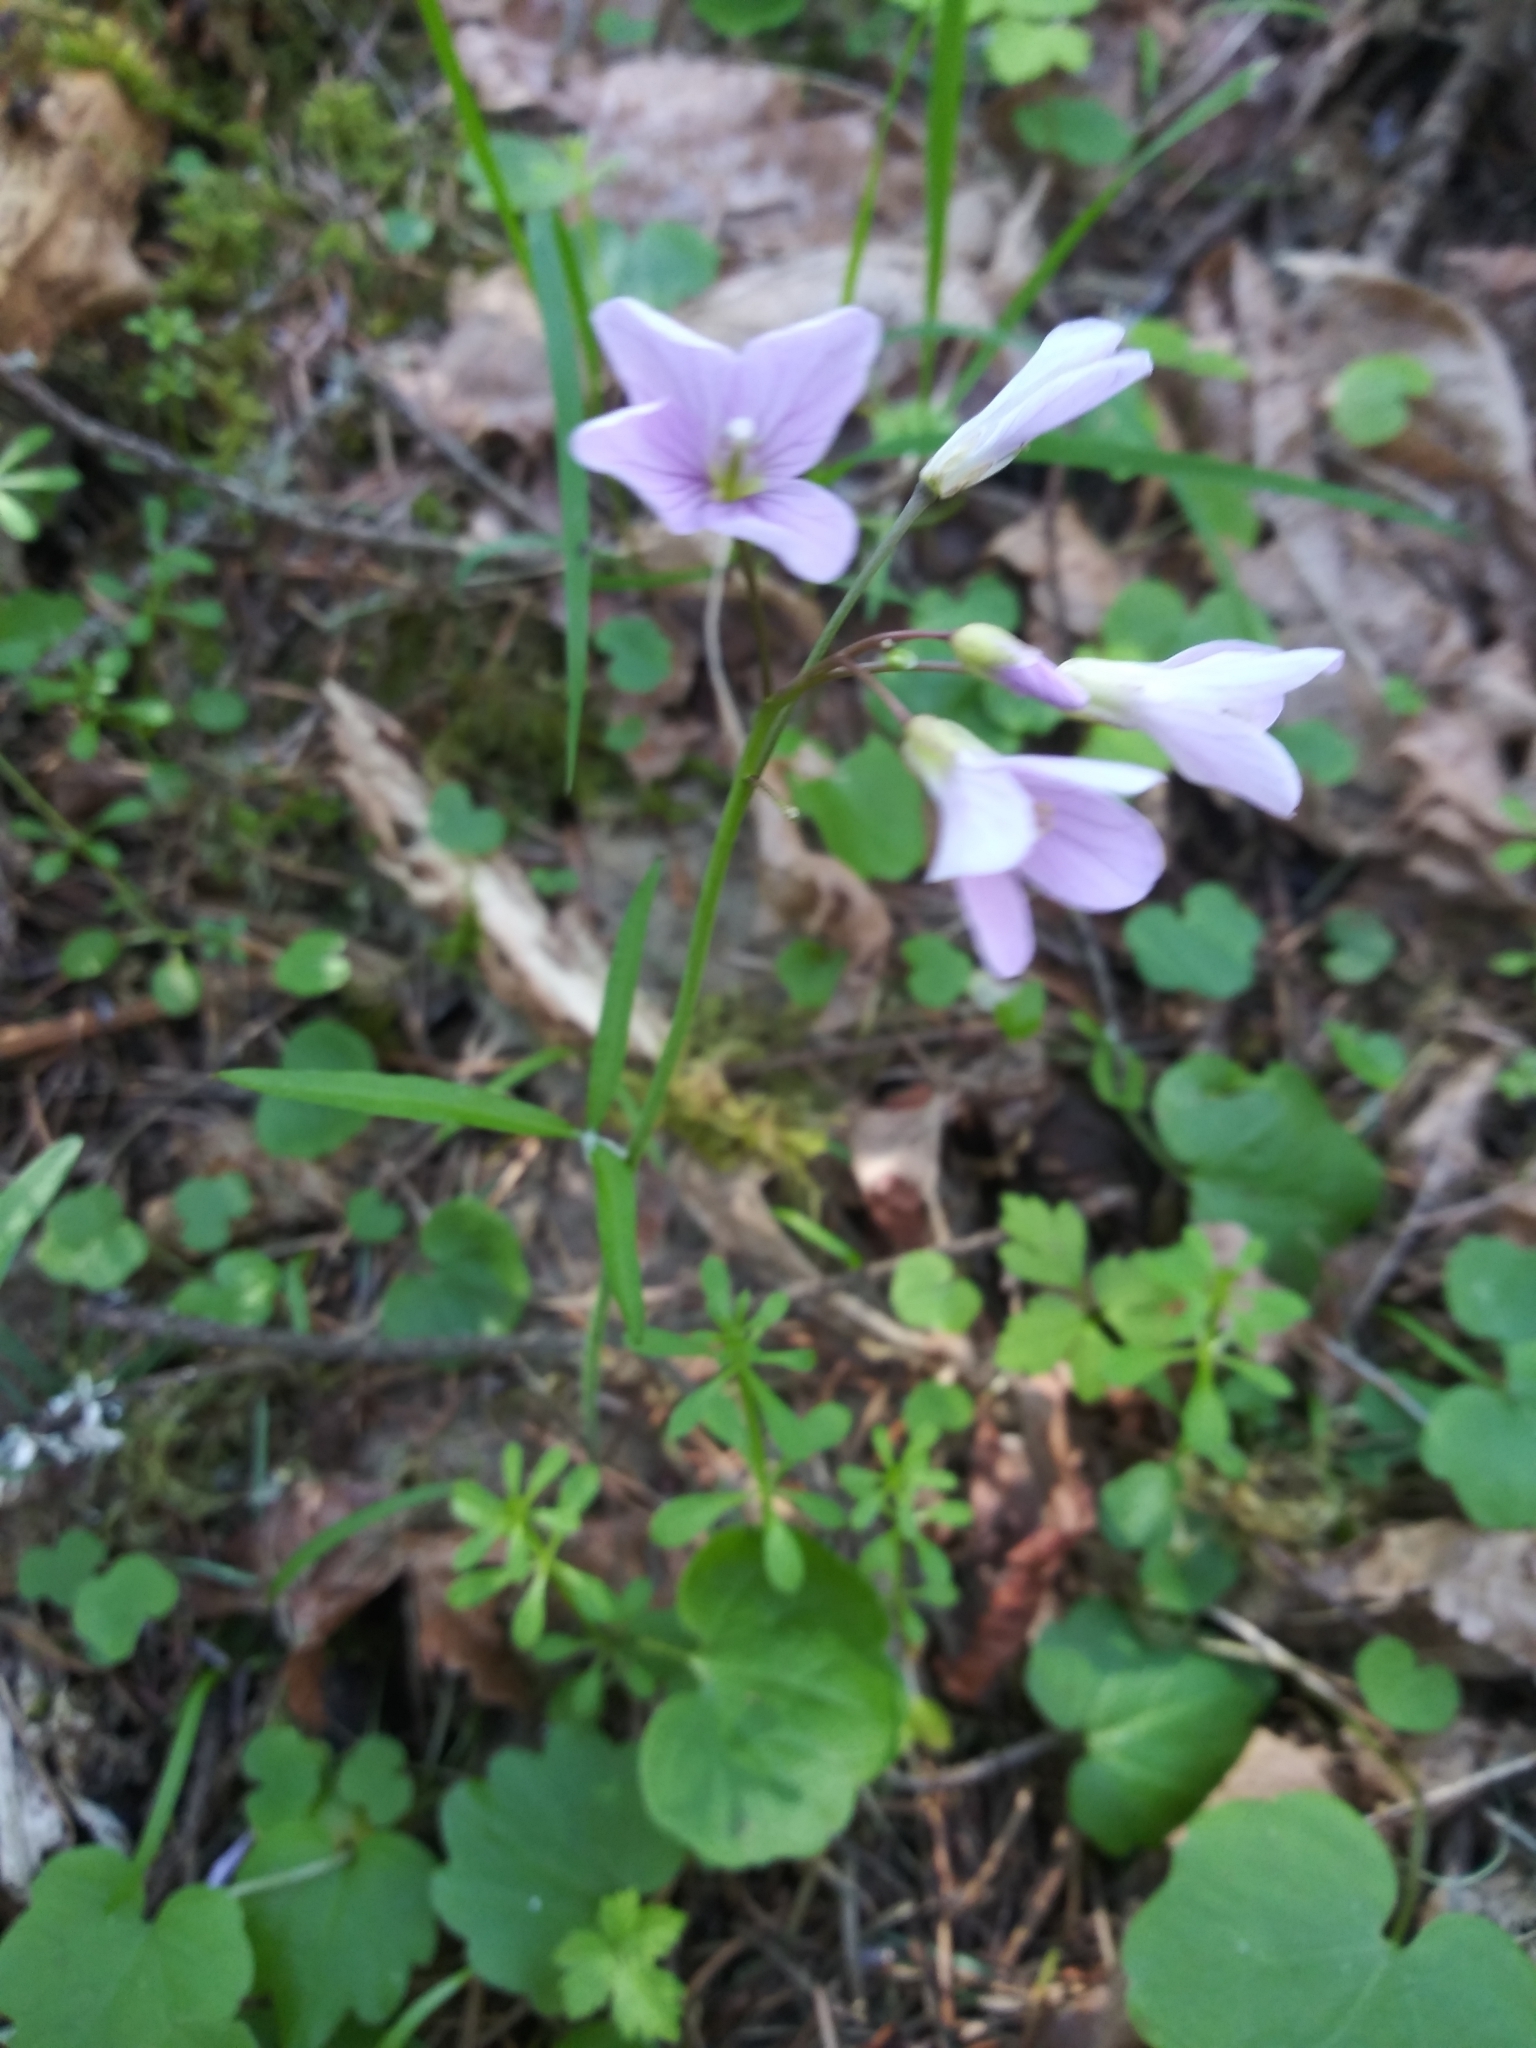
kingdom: Plantae
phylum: Tracheophyta
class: Magnoliopsida
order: Brassicales
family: Brassicaceae
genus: Cardamine
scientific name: Cardamine nuttallii
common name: Nuttall's toothwort
